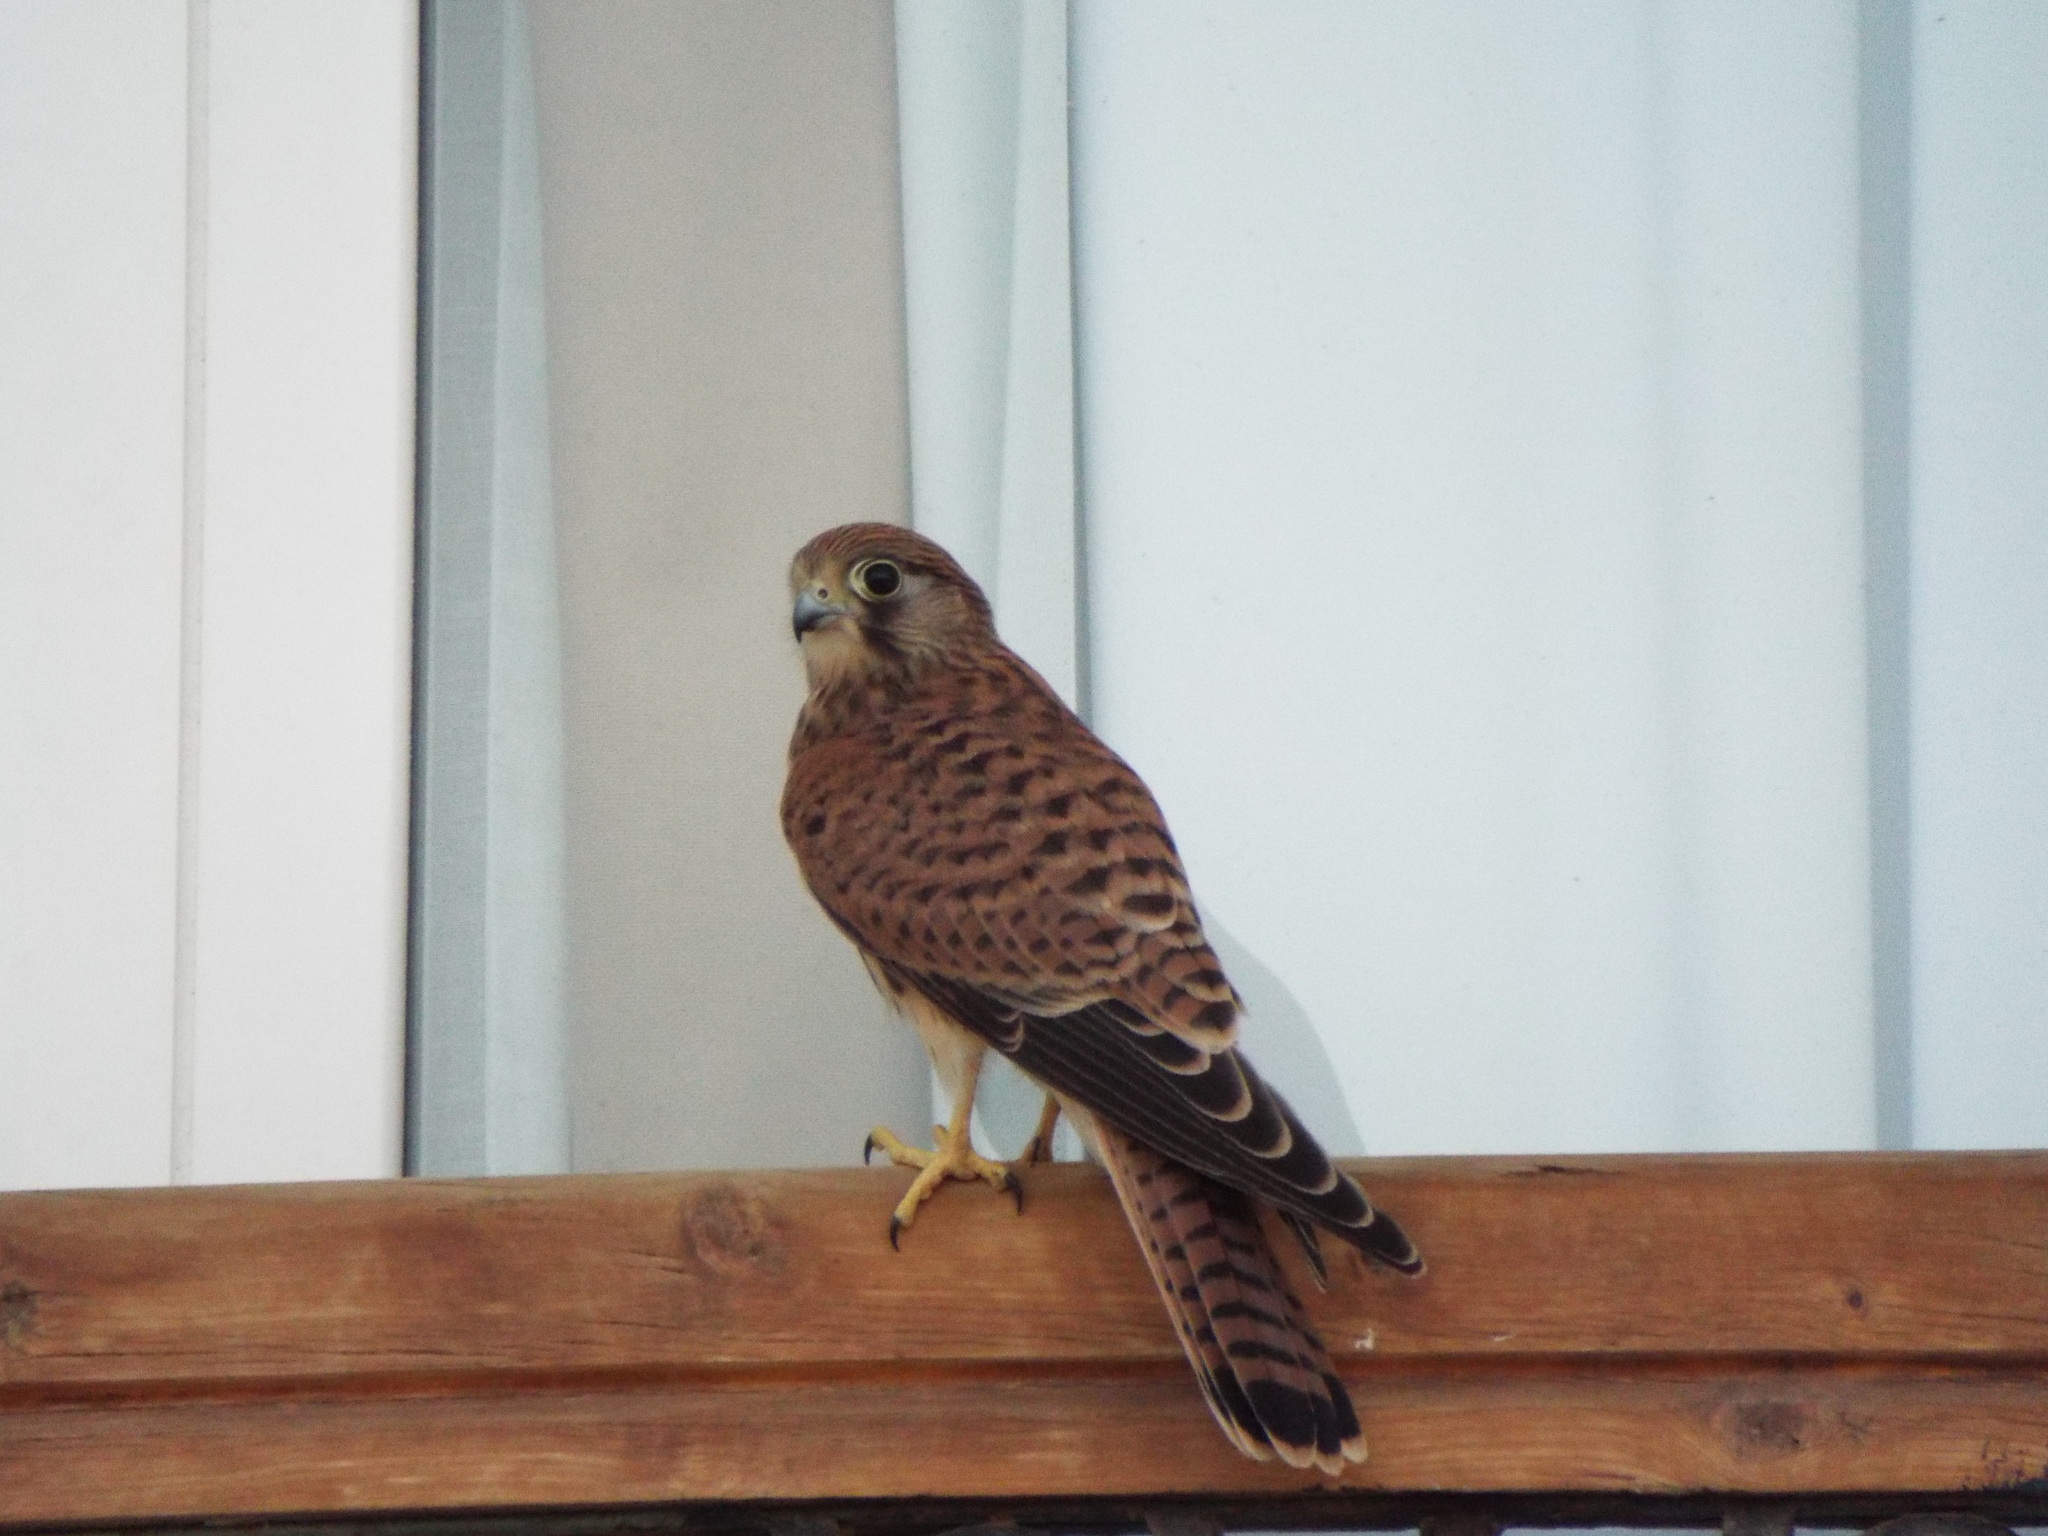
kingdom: Animalia
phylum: Chordata
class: Aves
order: Falconiformes
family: Falconidae
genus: Falco
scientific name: Falco tinnunculus
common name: Common kestrel
